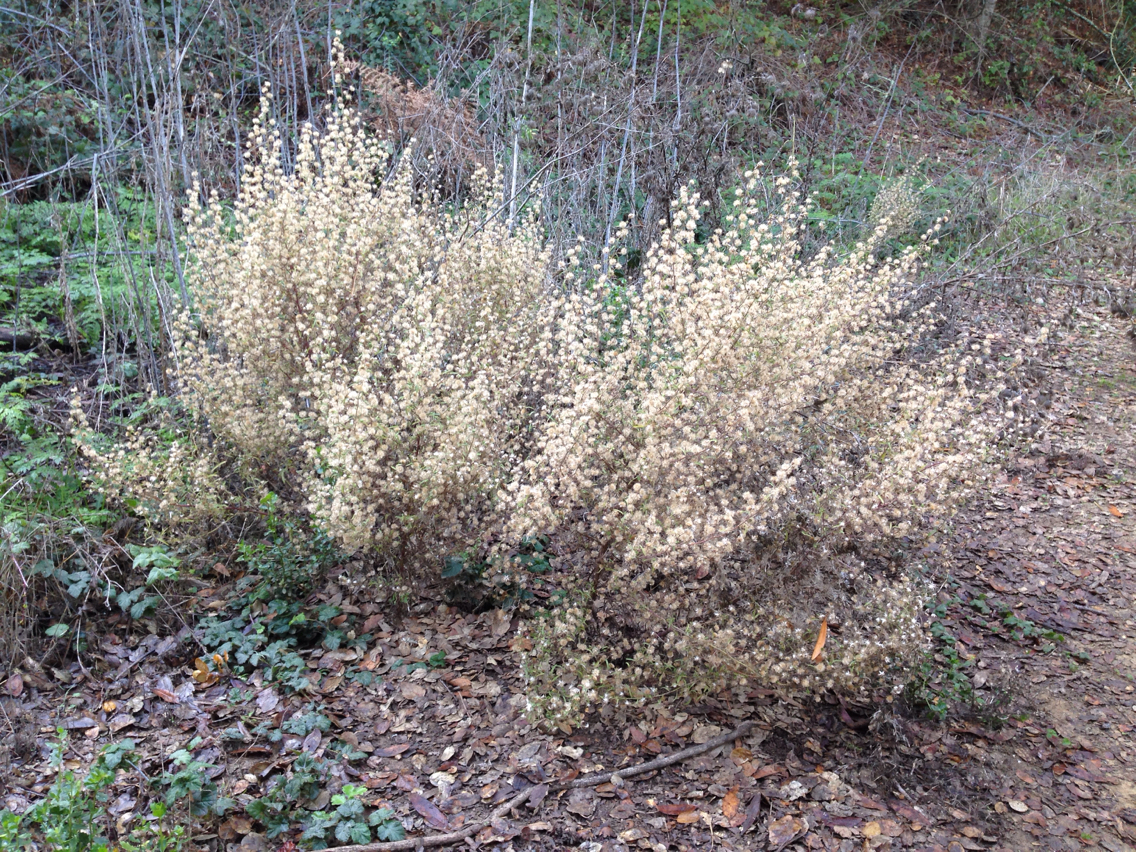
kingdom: Plantae
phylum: Tracheophyta
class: Magnoliopsida
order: Asterales
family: Asteraceae
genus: Dittrichia
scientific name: Dittrichia graveolens
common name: Stinking fleabane
